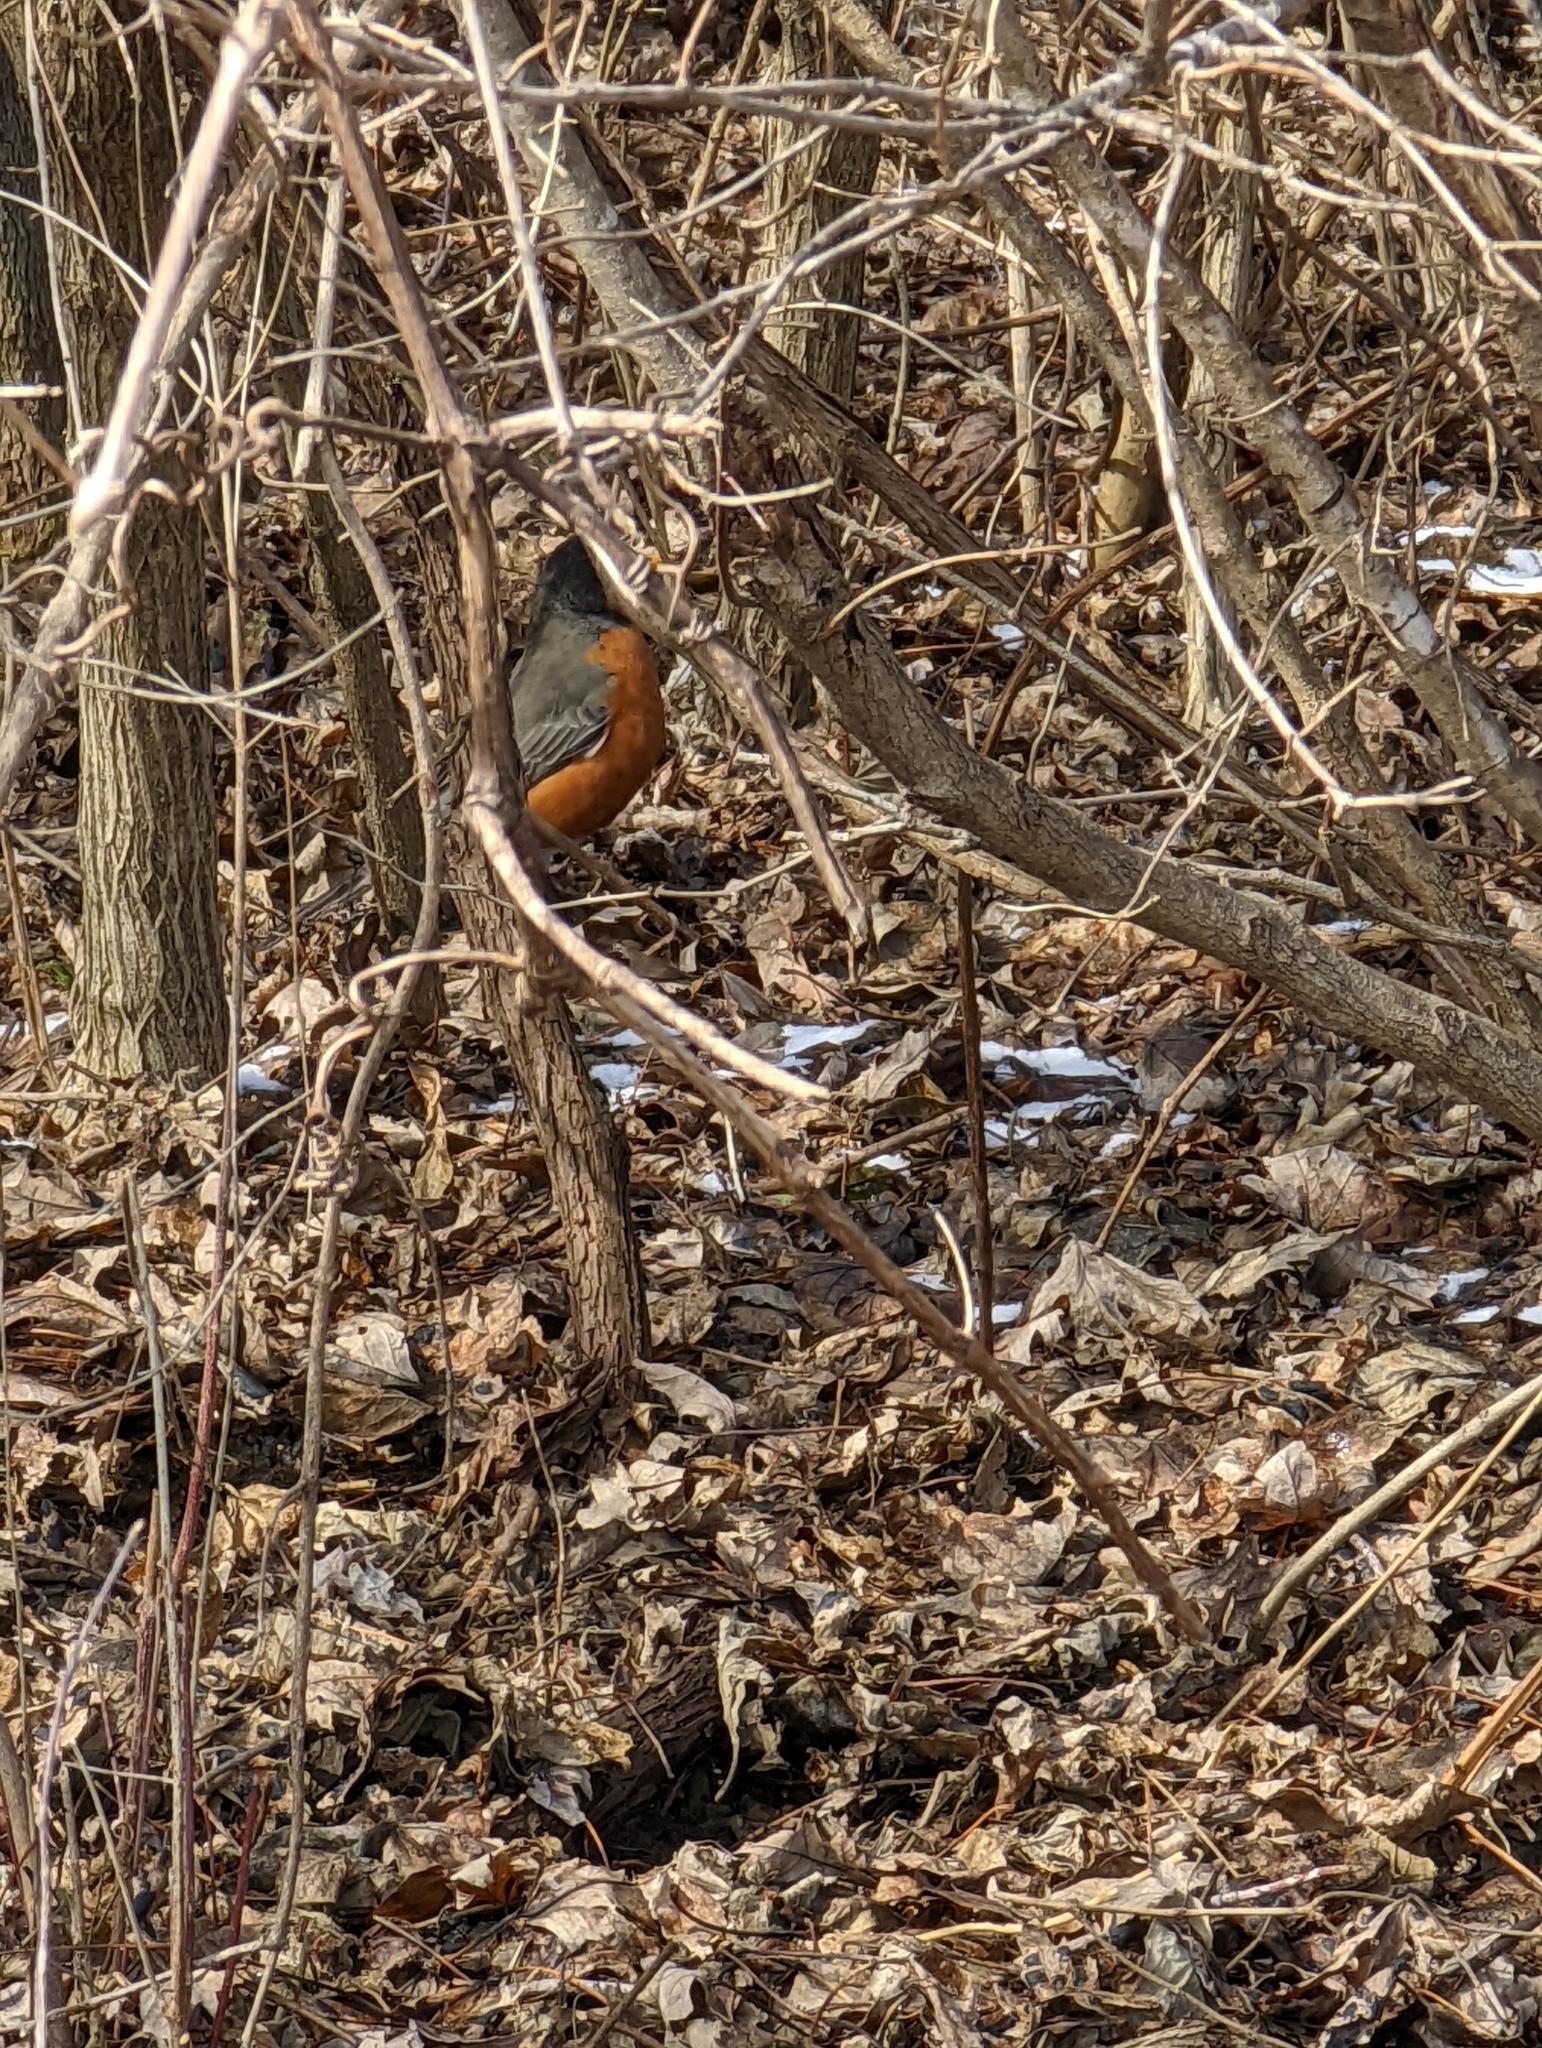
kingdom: Animalia
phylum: Chordata
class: Aves
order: Passeriformes
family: Turdidae
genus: Turdus
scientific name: Turdus migratorius
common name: American robin
